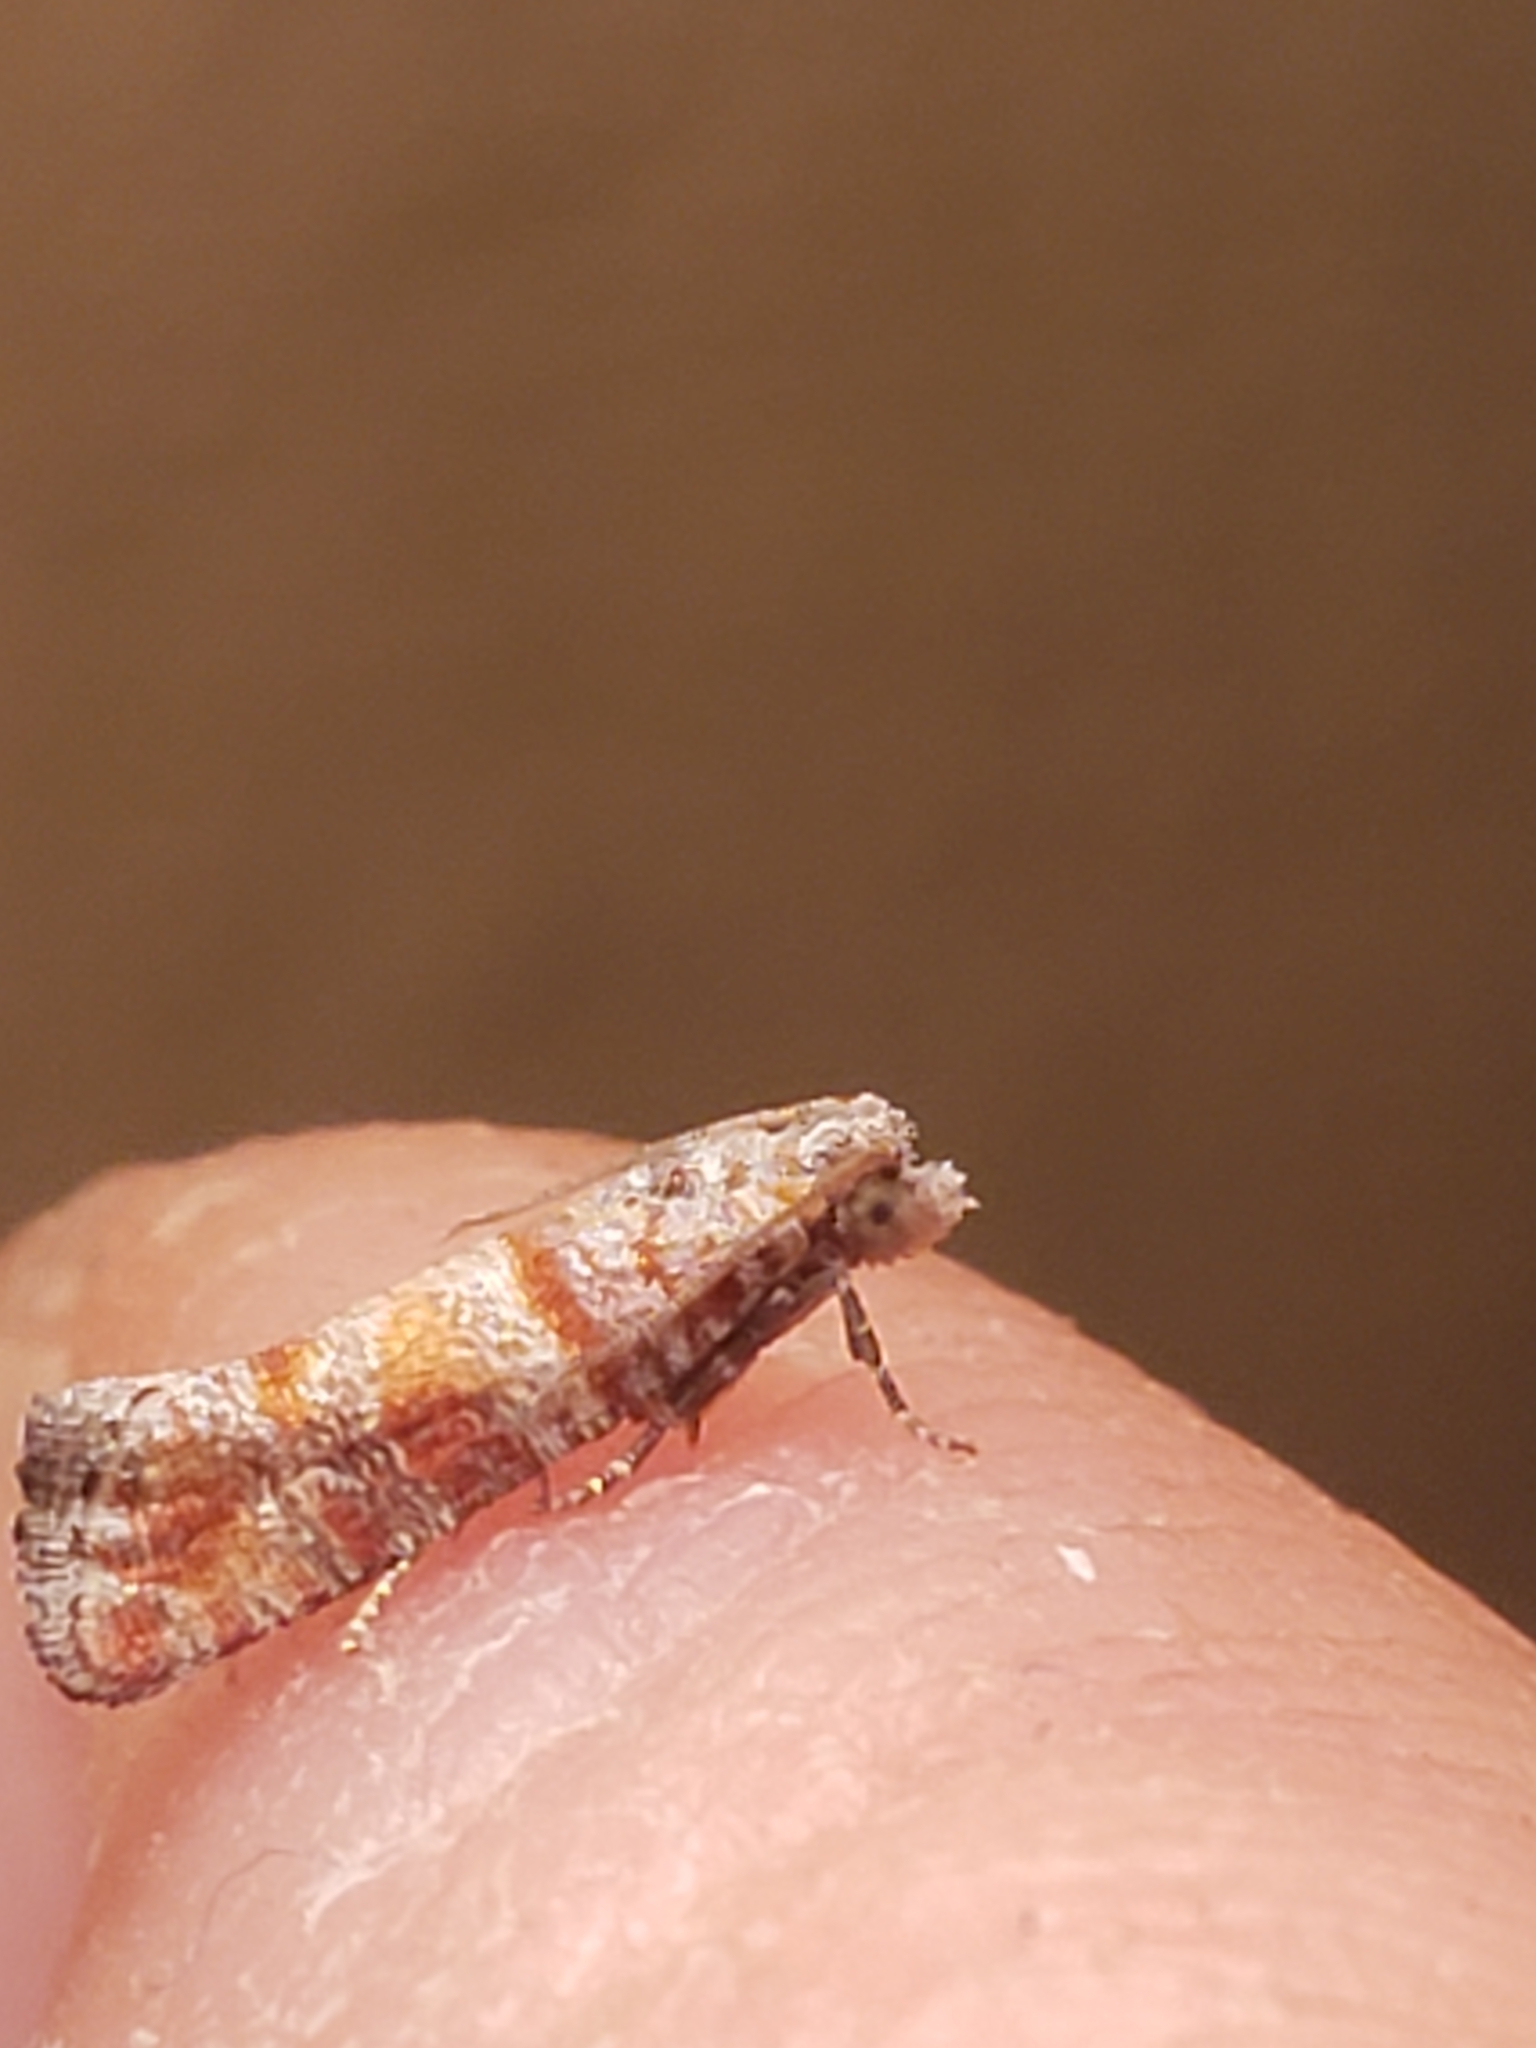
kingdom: Animalia
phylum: Arthropoda
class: Insecta
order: Lepidoptera
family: Tortricidae
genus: Rhyacionia
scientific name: Rhyacionia frustrana
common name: Nantucket pine tip moth
